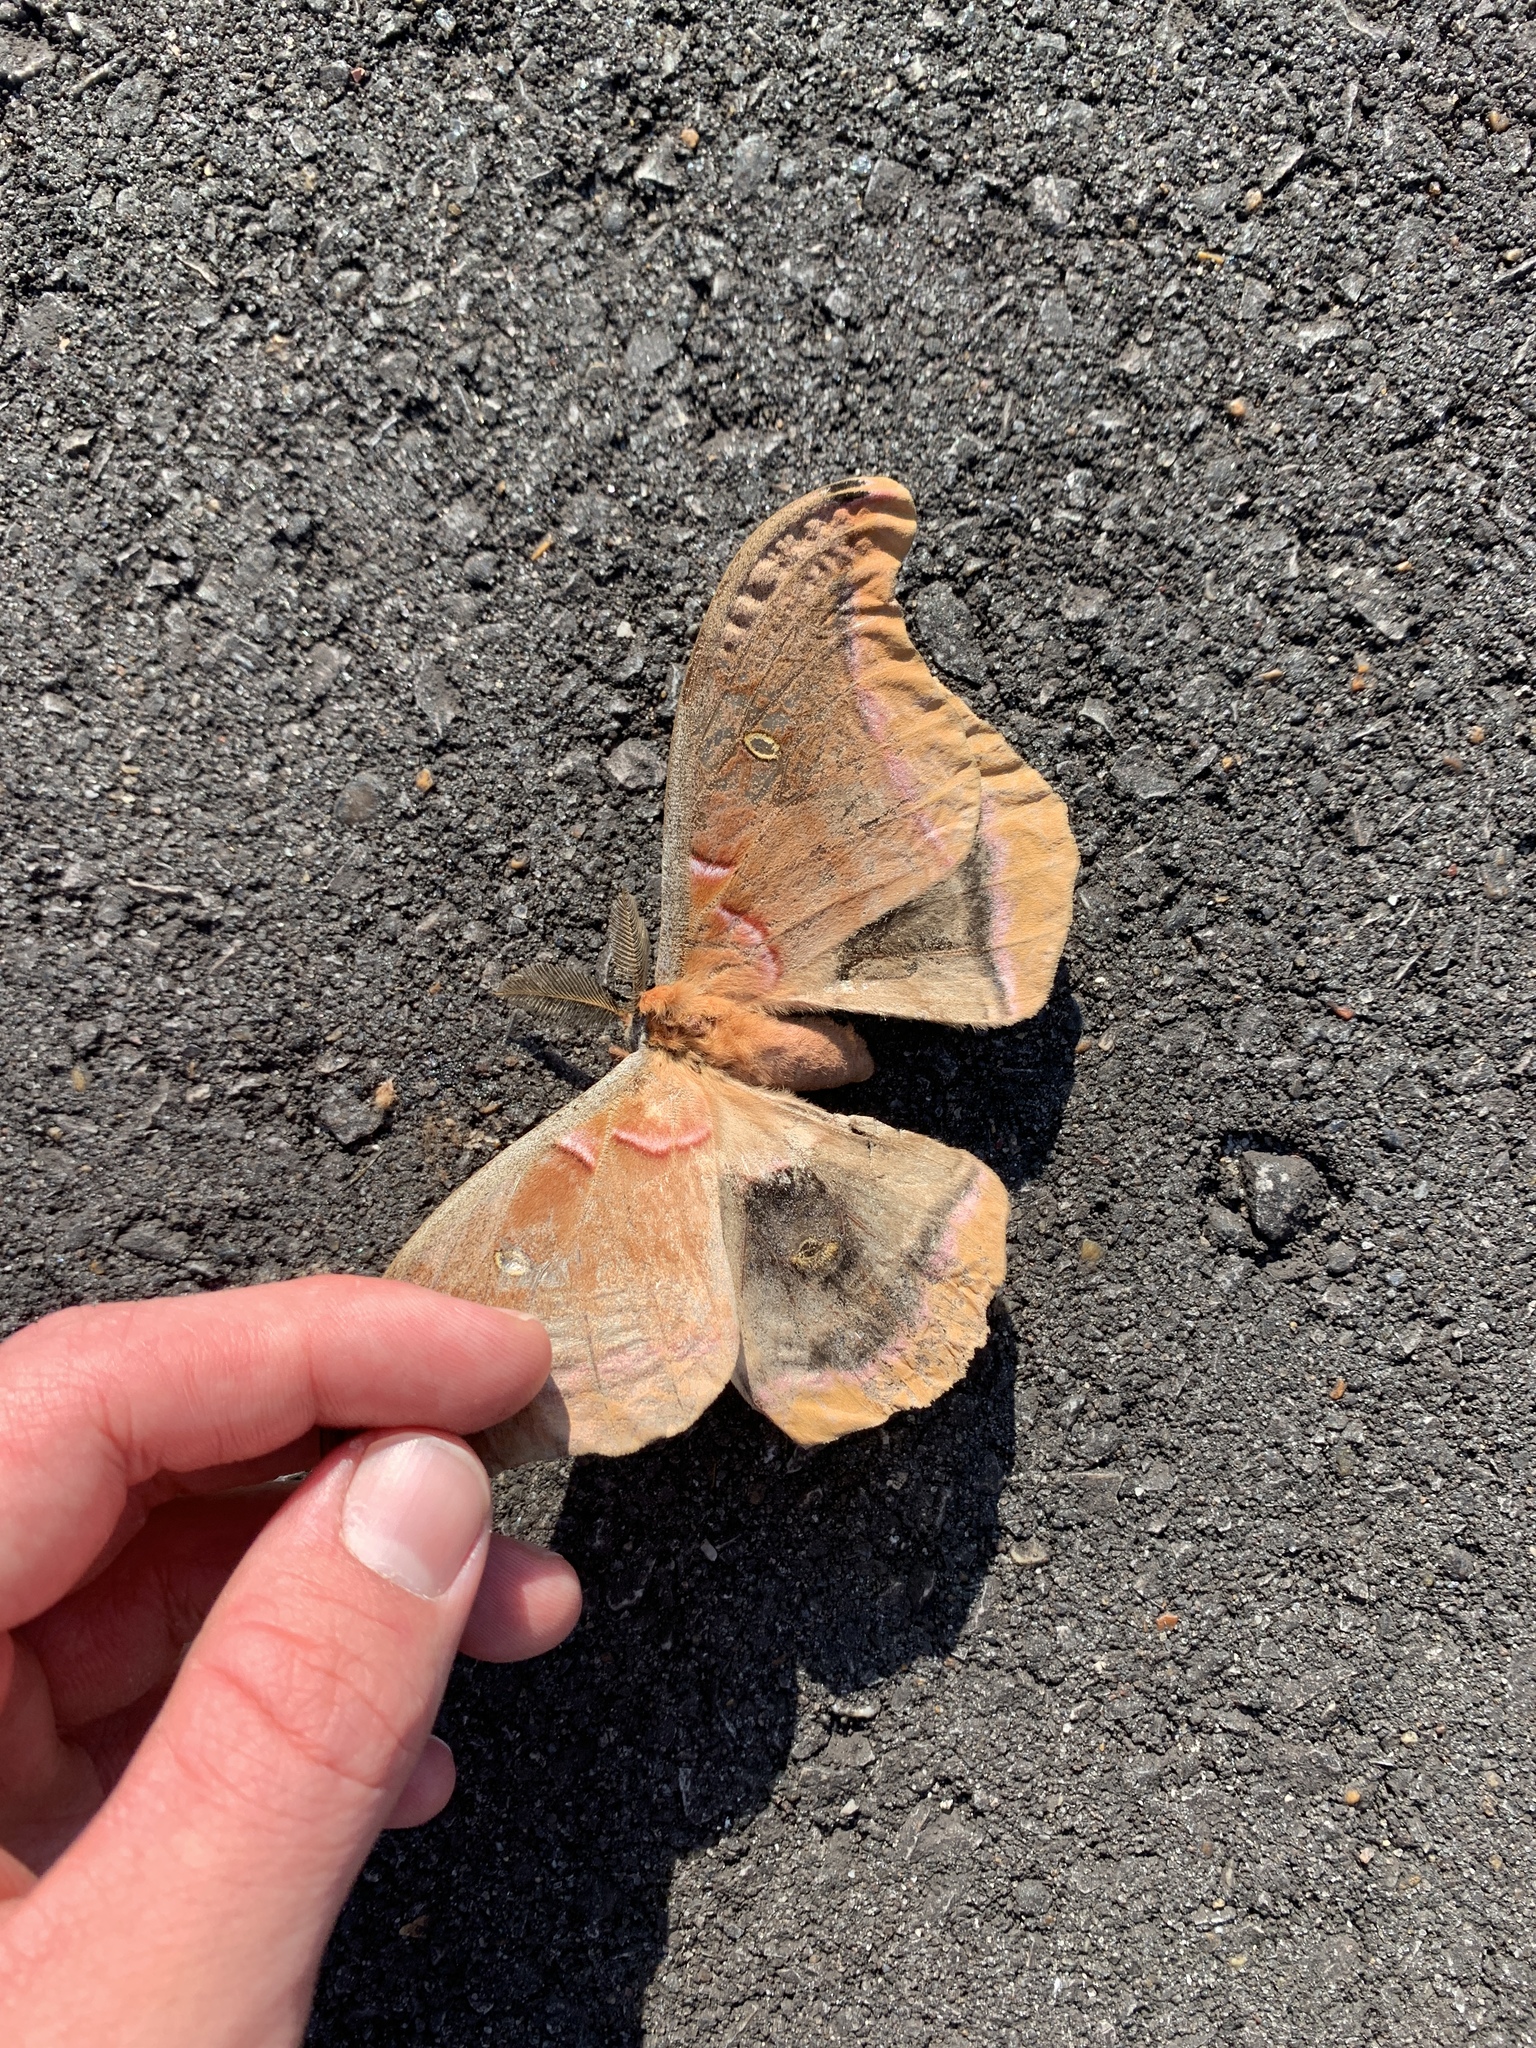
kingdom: Animalia
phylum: Arthropoda
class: Insecta
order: Lepidoptera
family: Saturniidae
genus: Antheraea
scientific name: Antheraea polyphemus
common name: Polyphemus moth
